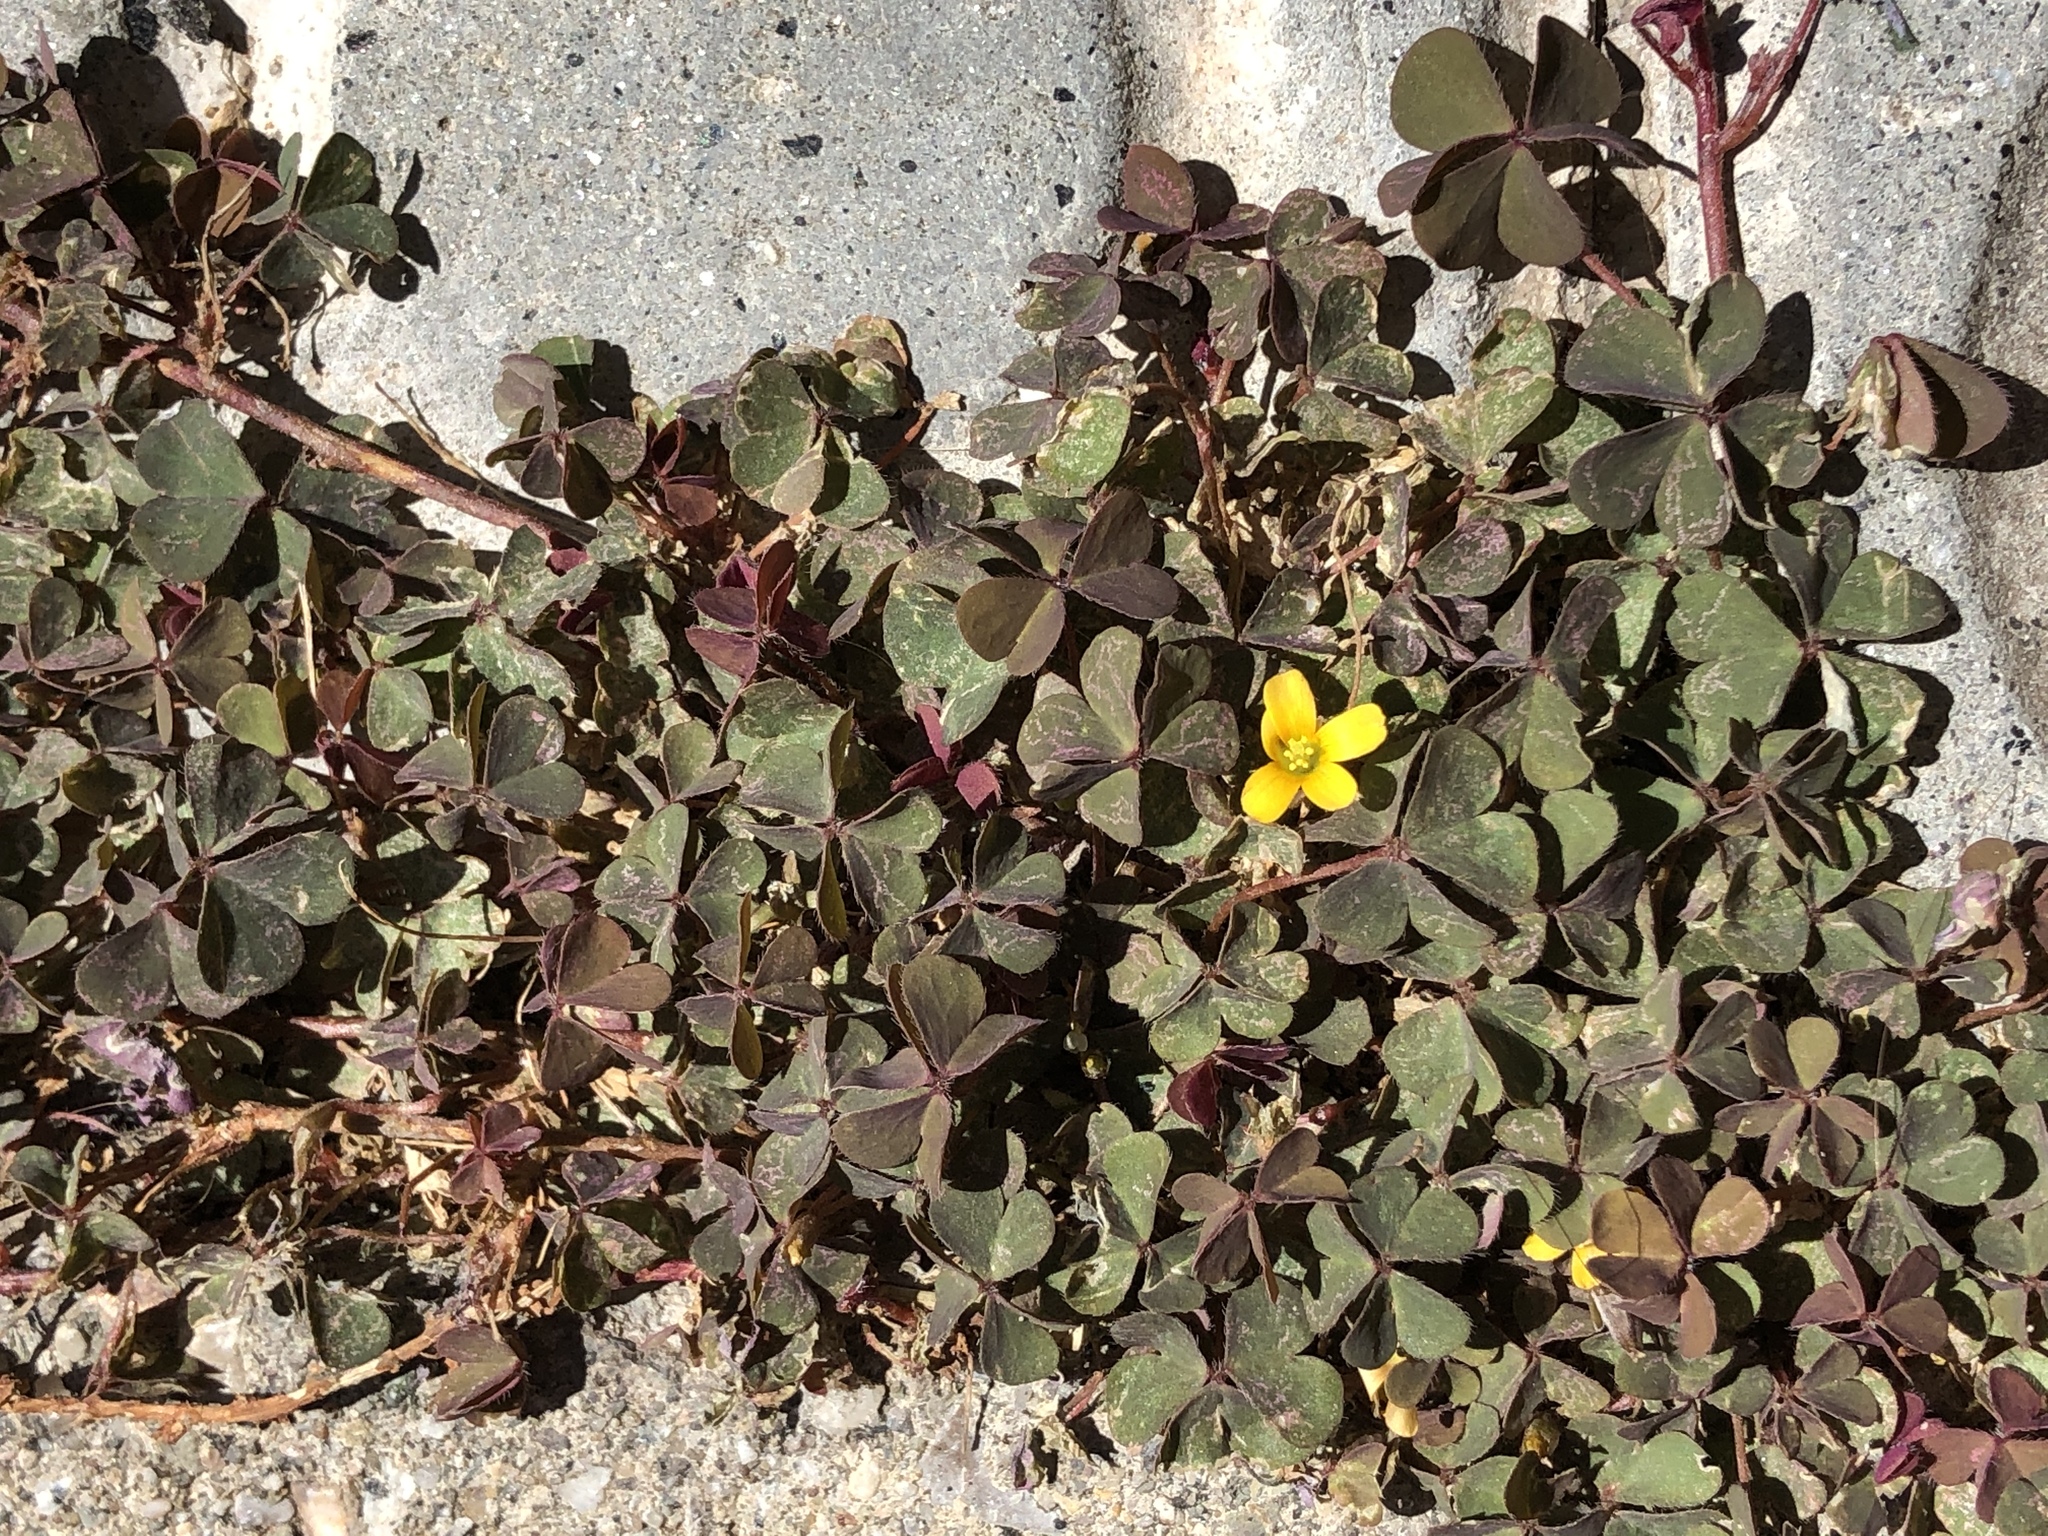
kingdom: Plantae
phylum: Tracheophyta
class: Magnoliopsida
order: Oxalidales
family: Oxalidaceae
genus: Oxalis
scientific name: Oxalis corniculata
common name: Procumbent yellow-sorrel
